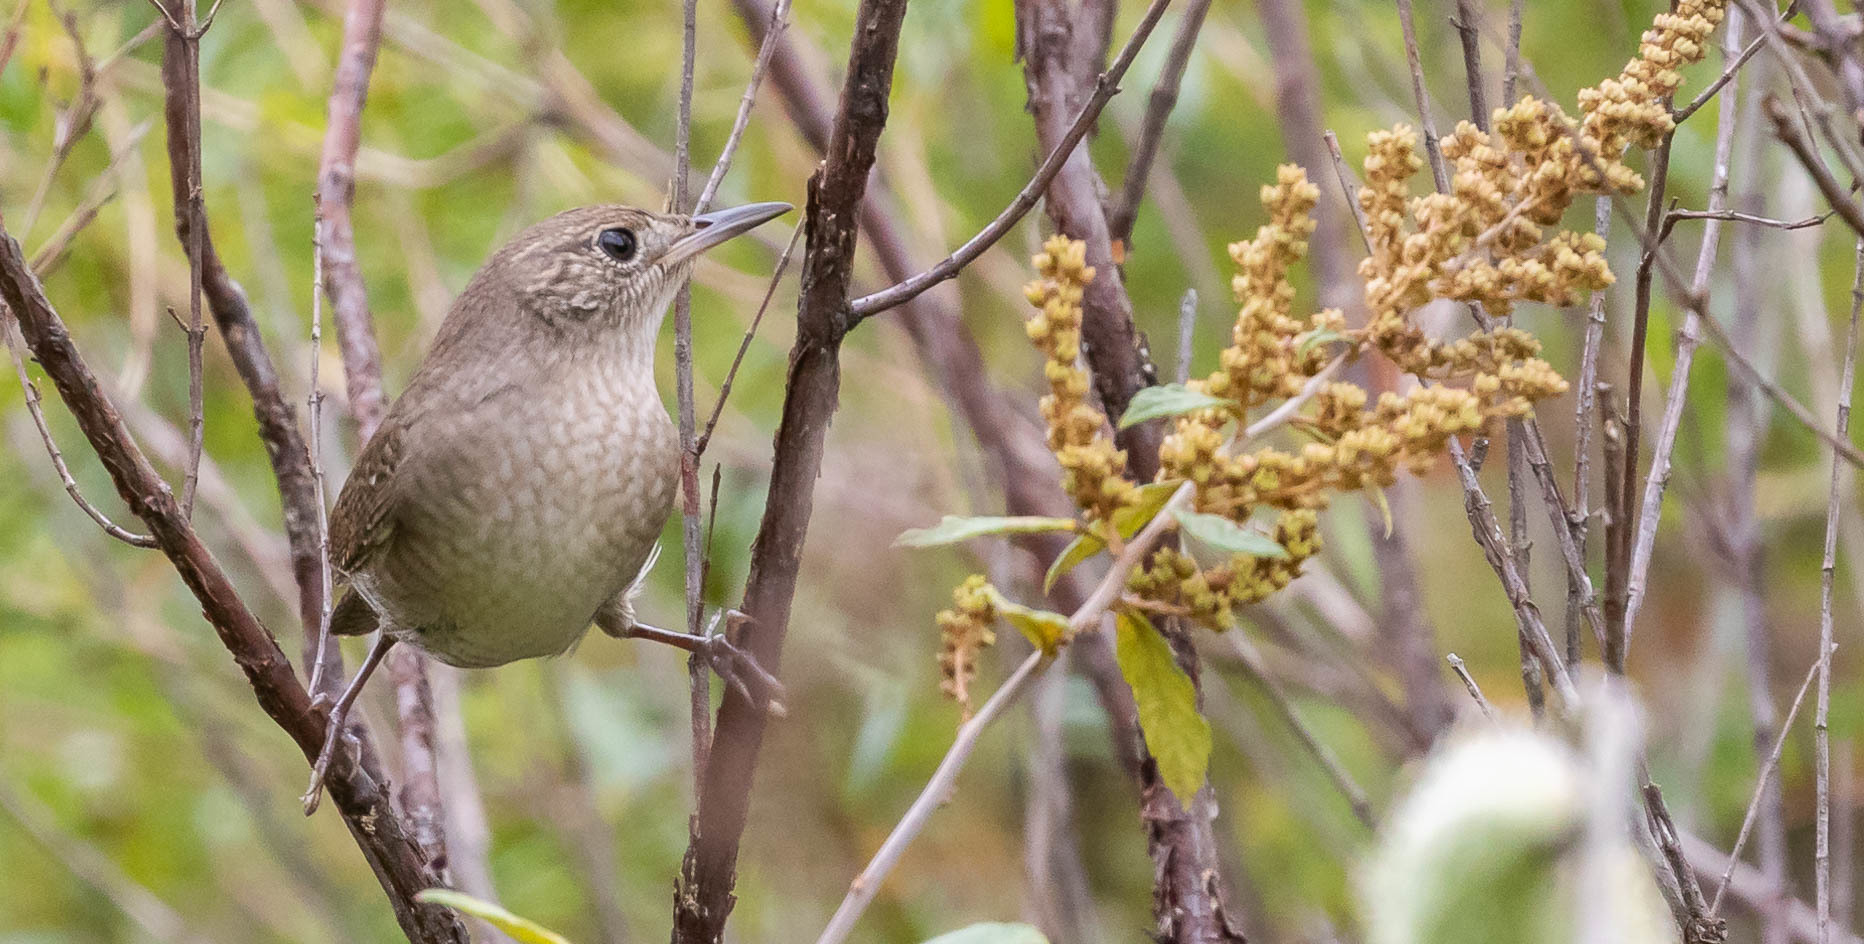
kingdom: Animalia
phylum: Chordata
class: Aves
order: Passeriformes
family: Troglodytidae
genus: Troglodytes
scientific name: Troglodytes aedon
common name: House wren
